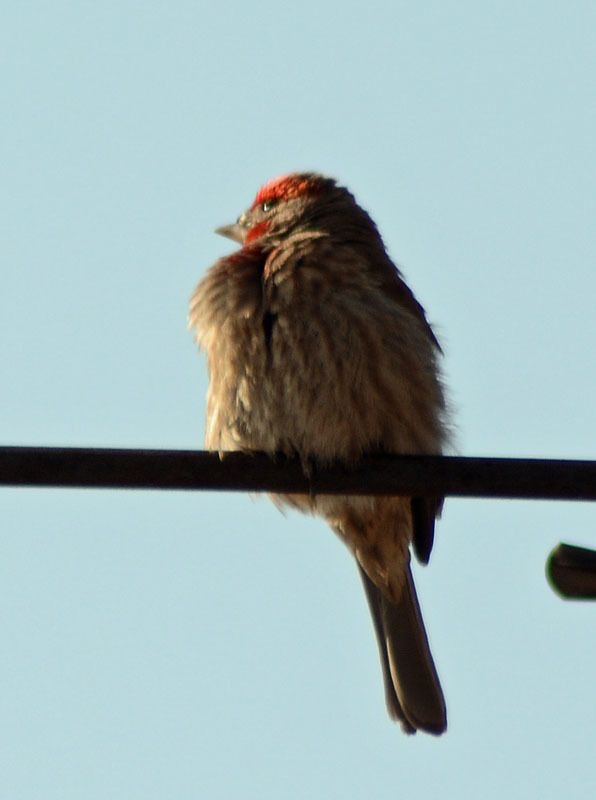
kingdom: Animalia
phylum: Chordata
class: Aves
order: Passeriformes
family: Fringillidae
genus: Haemorhous
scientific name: Haemorhous mexicanus
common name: House finch
